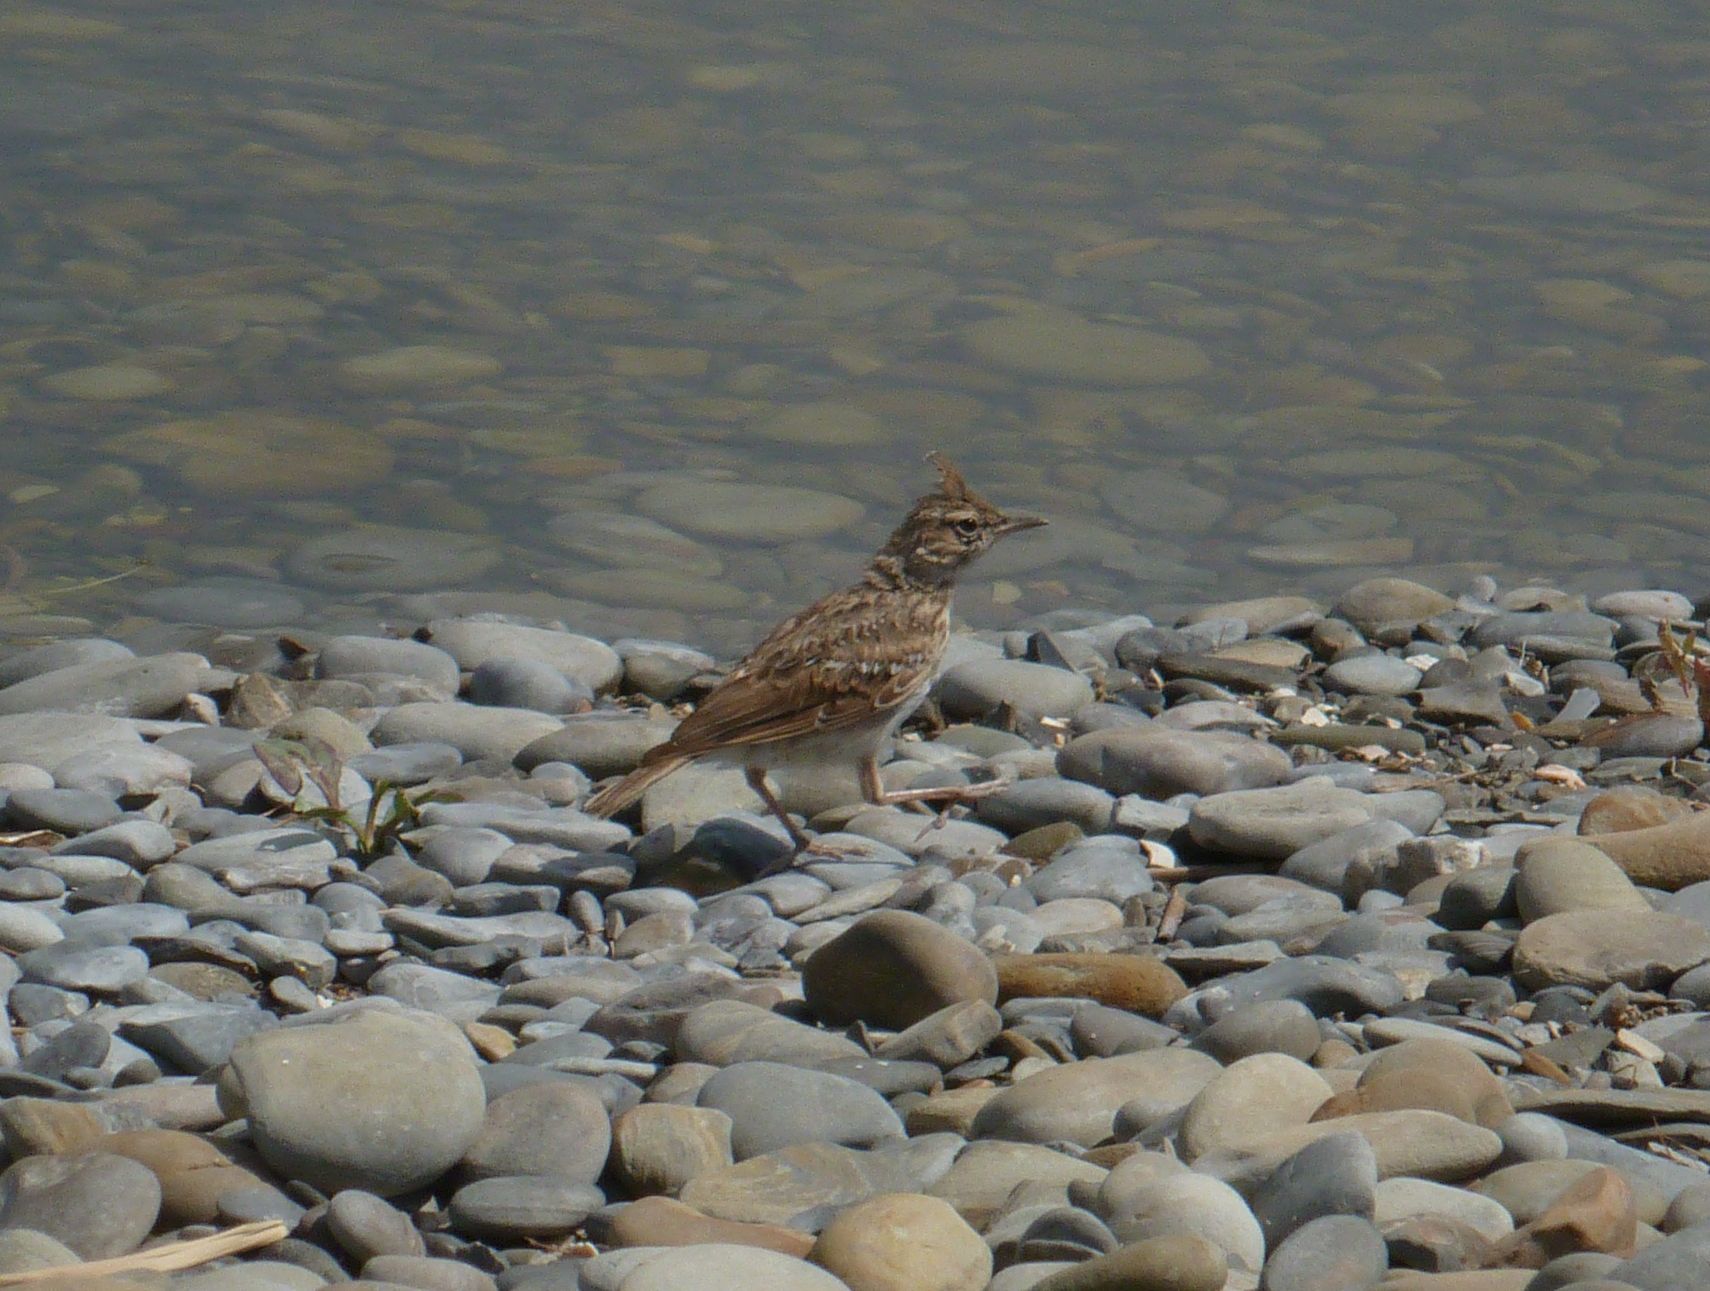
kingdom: Animalia
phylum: Chordata
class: Aves
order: Passeriformes
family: Alaudidae
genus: Galerida
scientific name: Galerida cristata
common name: Crested lark
